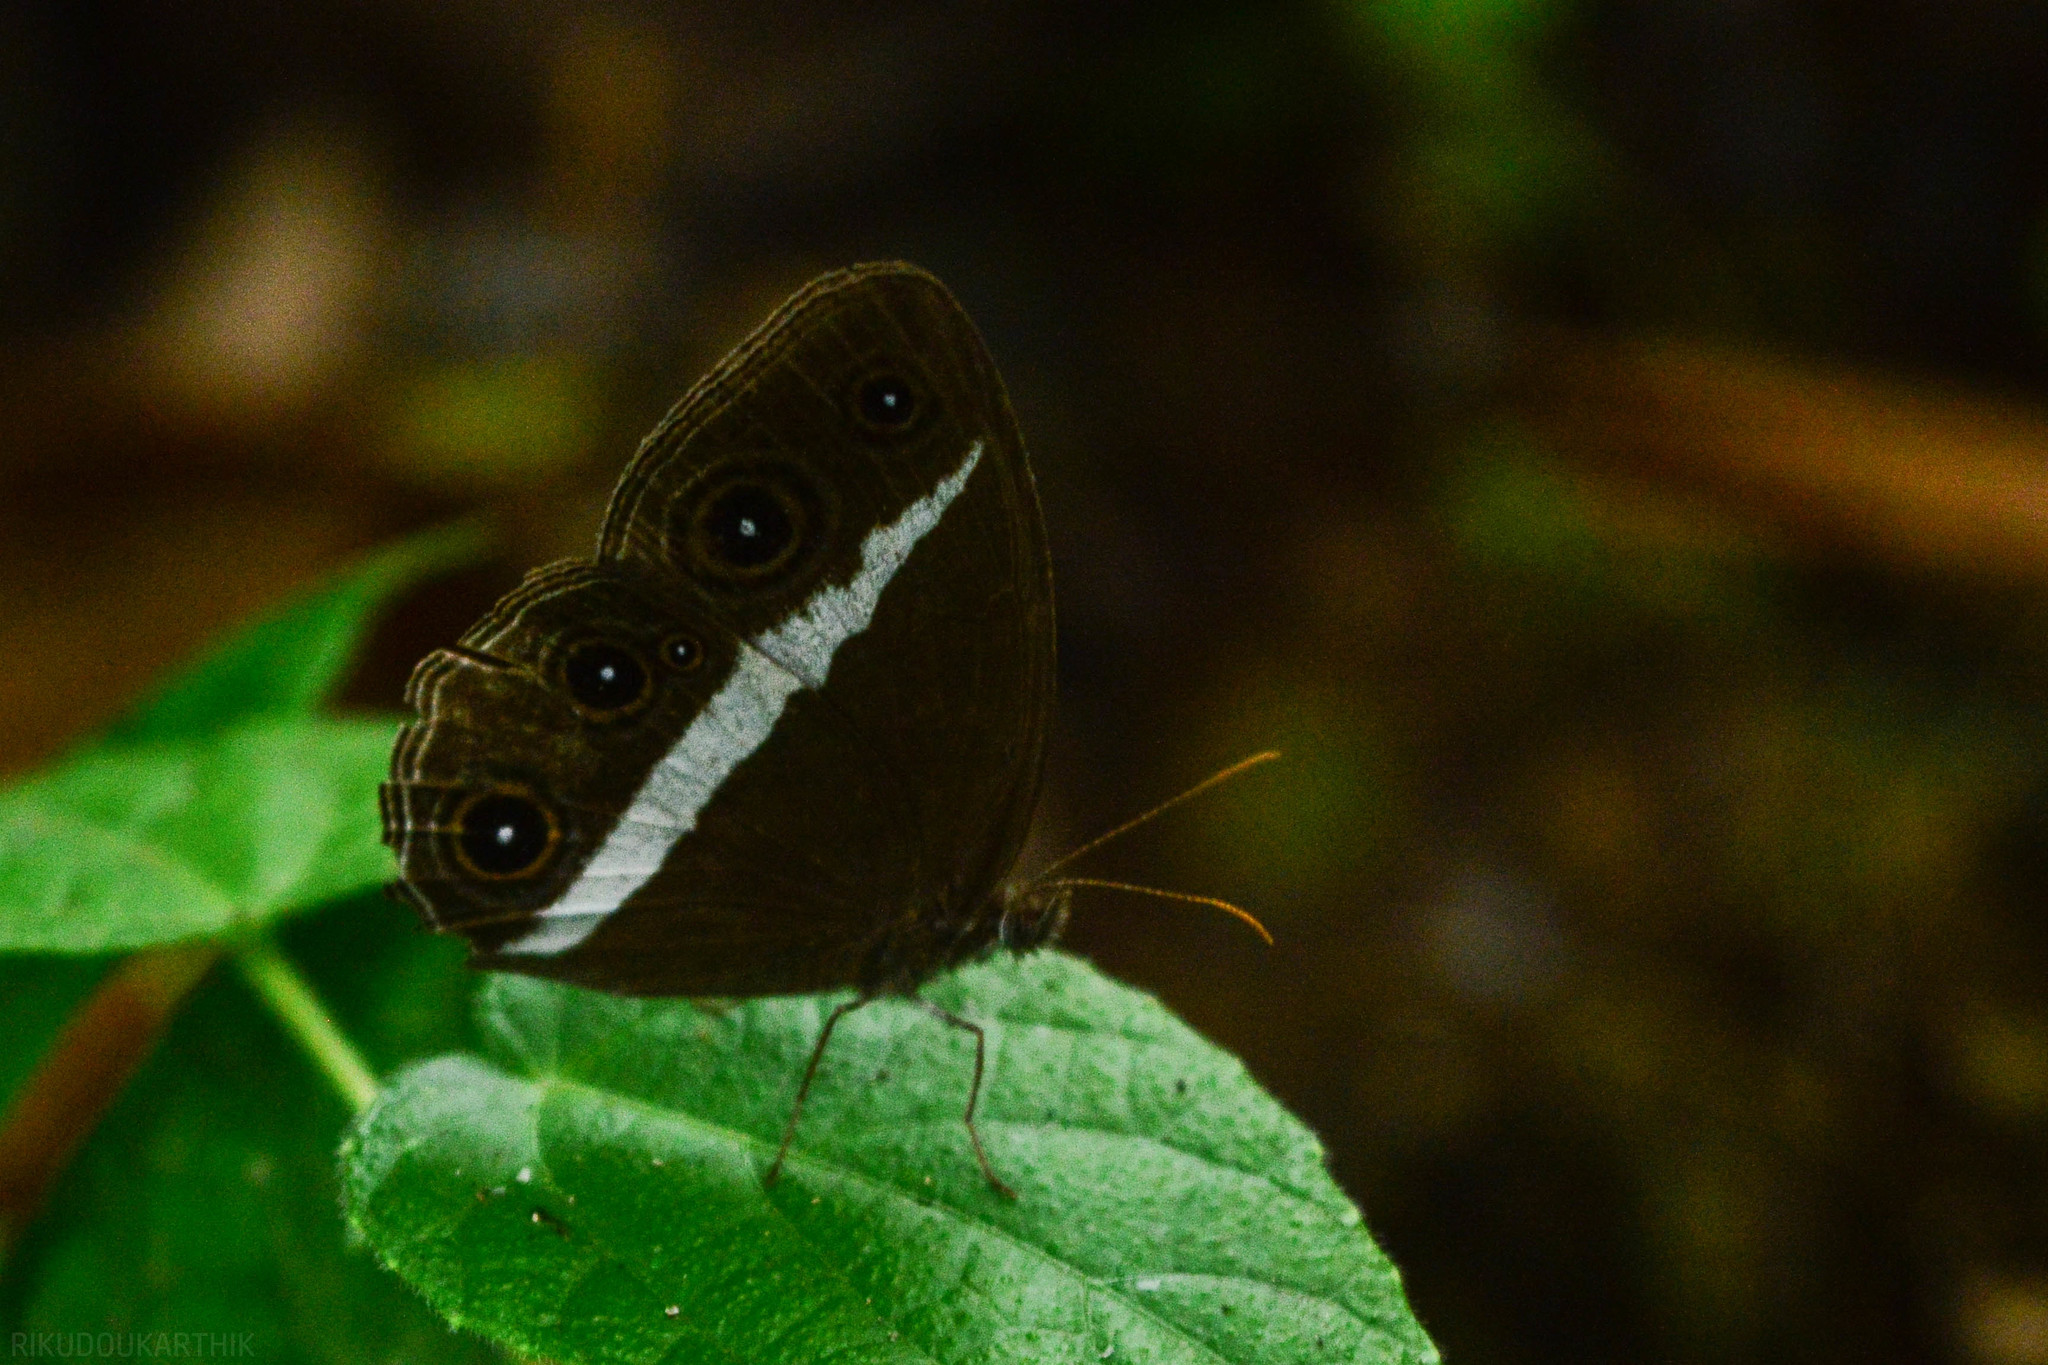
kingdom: Animalia
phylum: Arthropoda
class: Insecta
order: Lepidoptera
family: Nymphalidae
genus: Orsotriaena
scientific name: Orsotriaena medus
